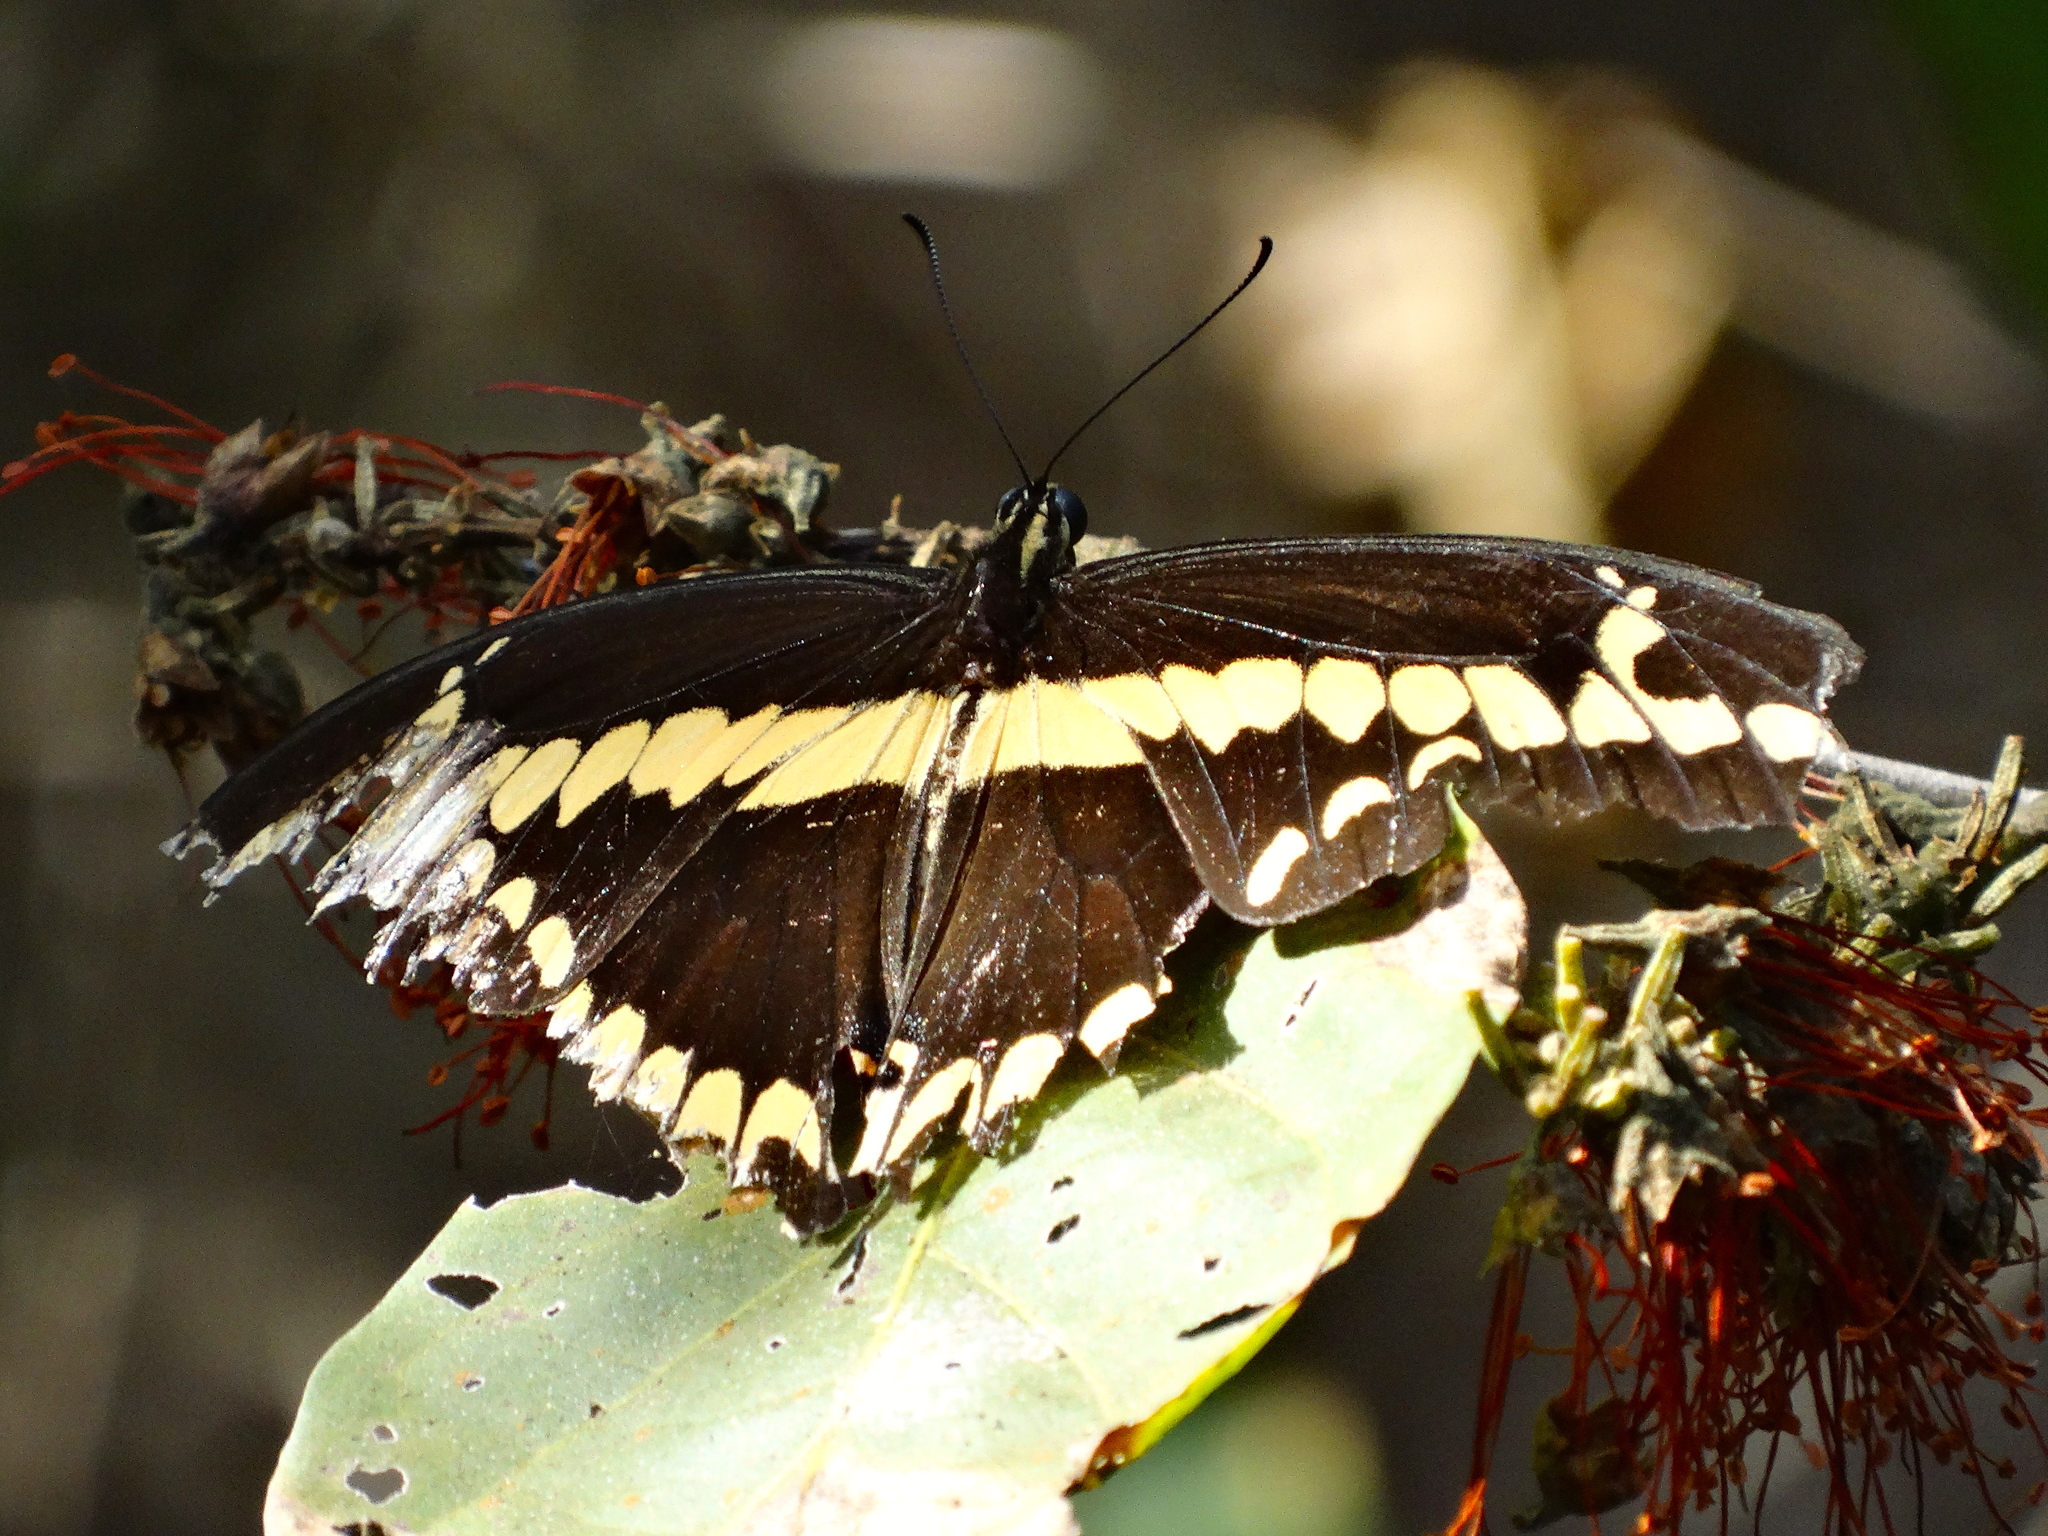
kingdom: Animalia
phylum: Arthropoda
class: Insecta
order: Lepidoptera
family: Papilionidae
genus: Papilio
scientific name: Papilio rumiko
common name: Western giant swallowtail
